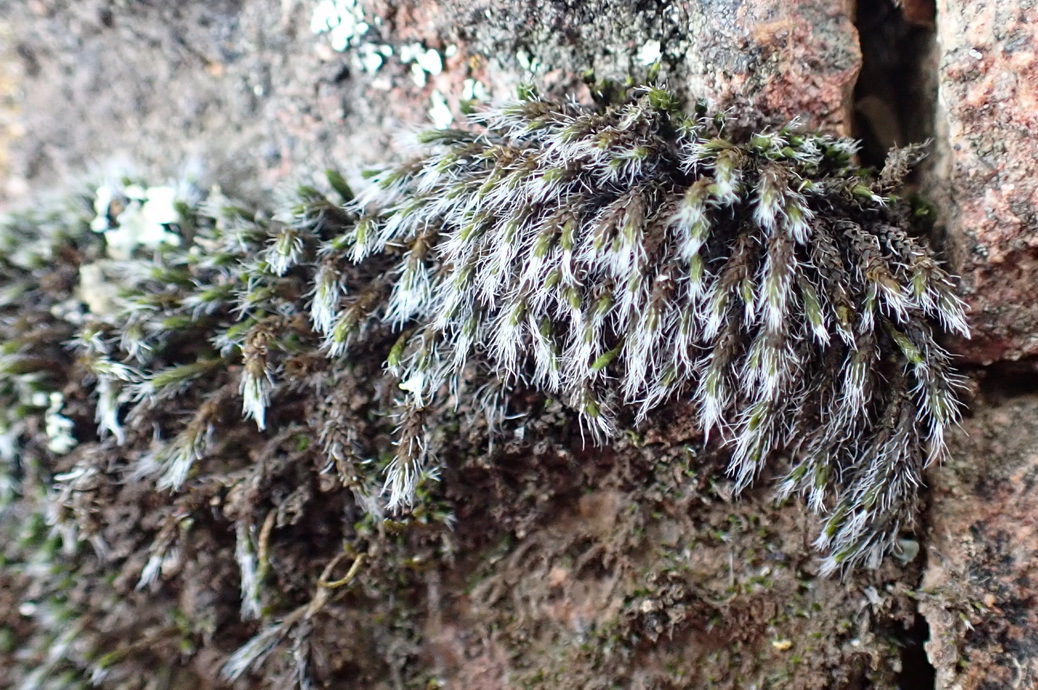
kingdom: Plantae
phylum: Bryophyta
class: Bryopsida
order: Grimmiales
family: Grimmiaceae
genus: Grimmia
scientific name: Grimmia laevigata
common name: Hoary grimmia
